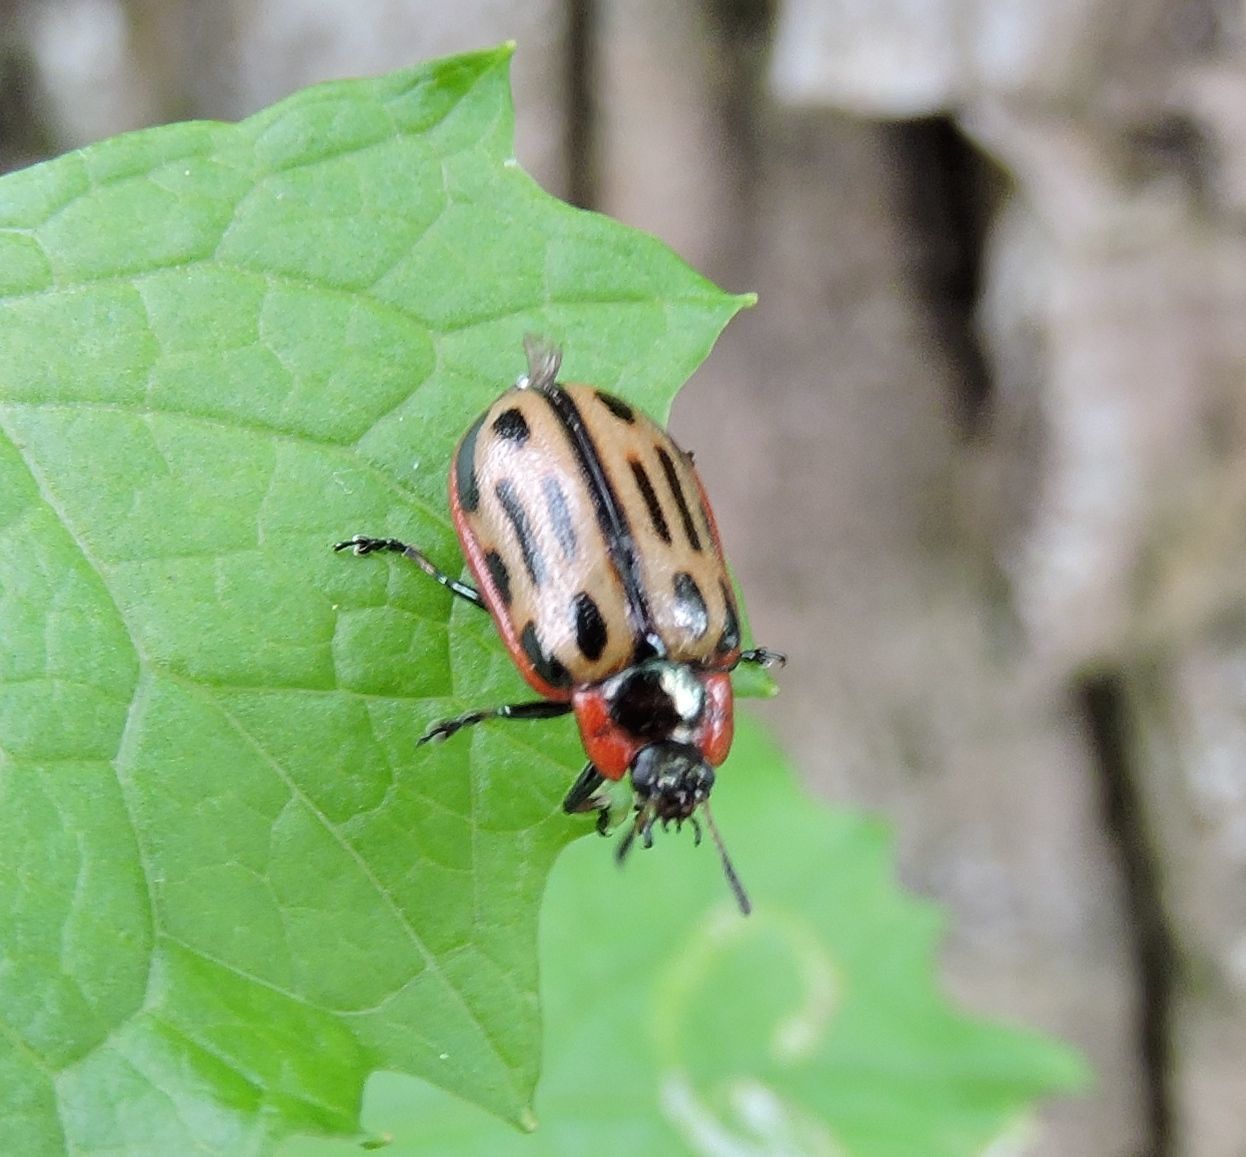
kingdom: Animalia
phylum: Arthropoda
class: Insecta
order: Coleoptera
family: Chrysomelidae
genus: Aethiopocassis
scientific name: Aethiopocassis scripta
